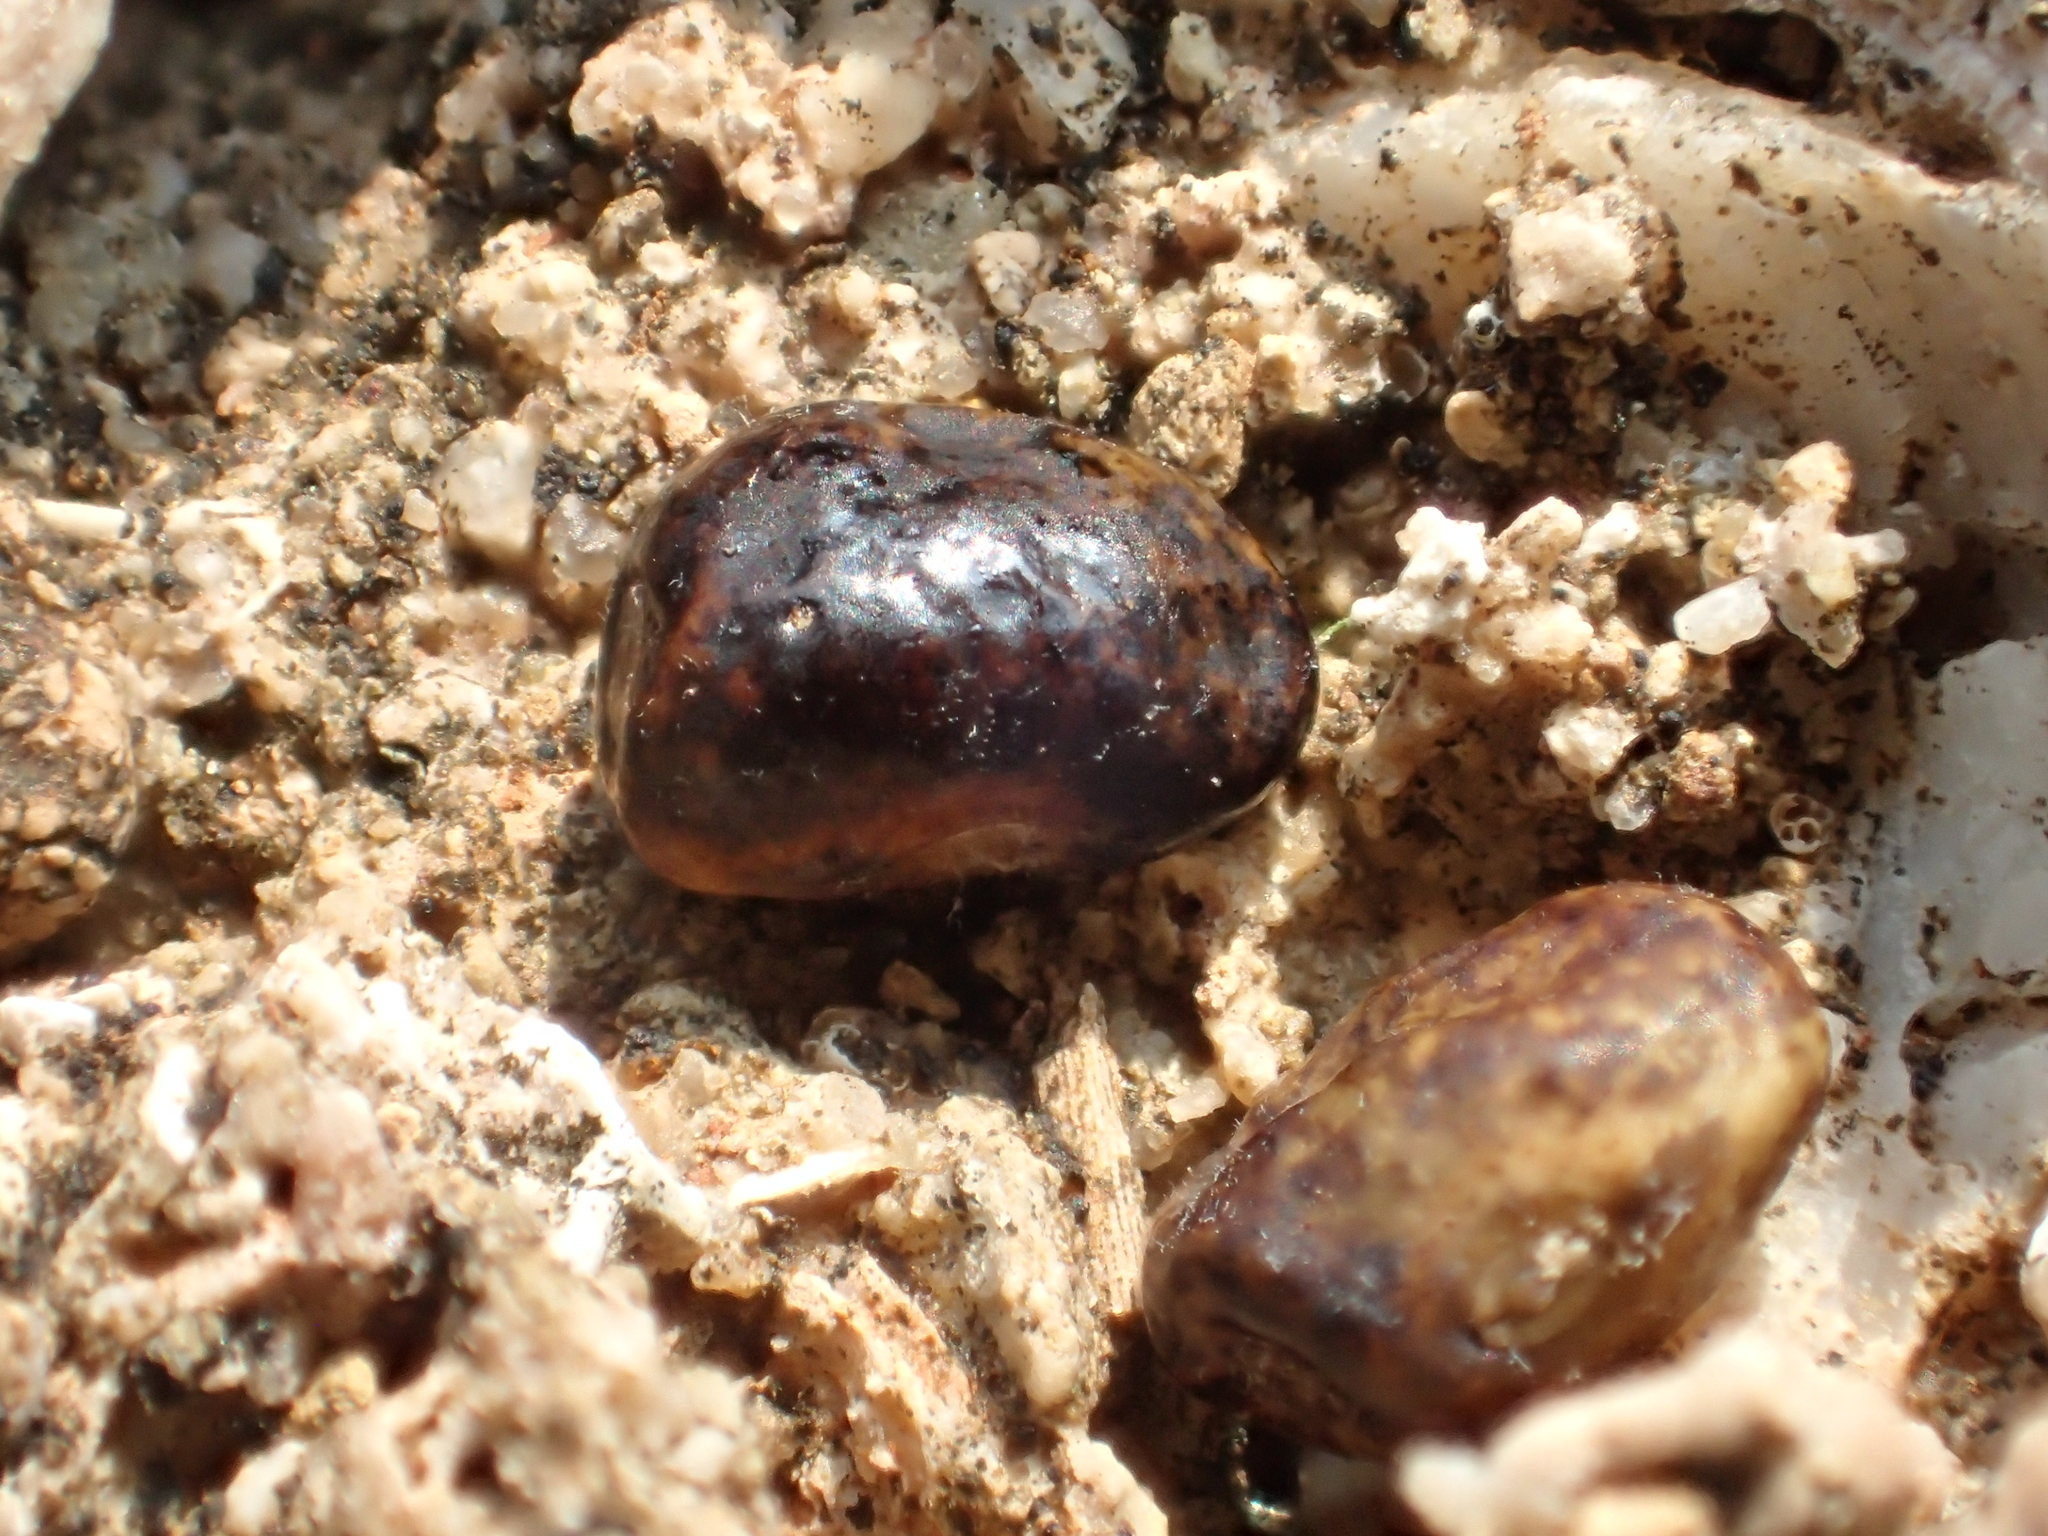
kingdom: Plantae
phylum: Tracheophyta
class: Magnoliopsida
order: Fabales
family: Fabaceae
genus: Rhynchosia
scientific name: Rhynchosia minima
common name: Least snoutbean
